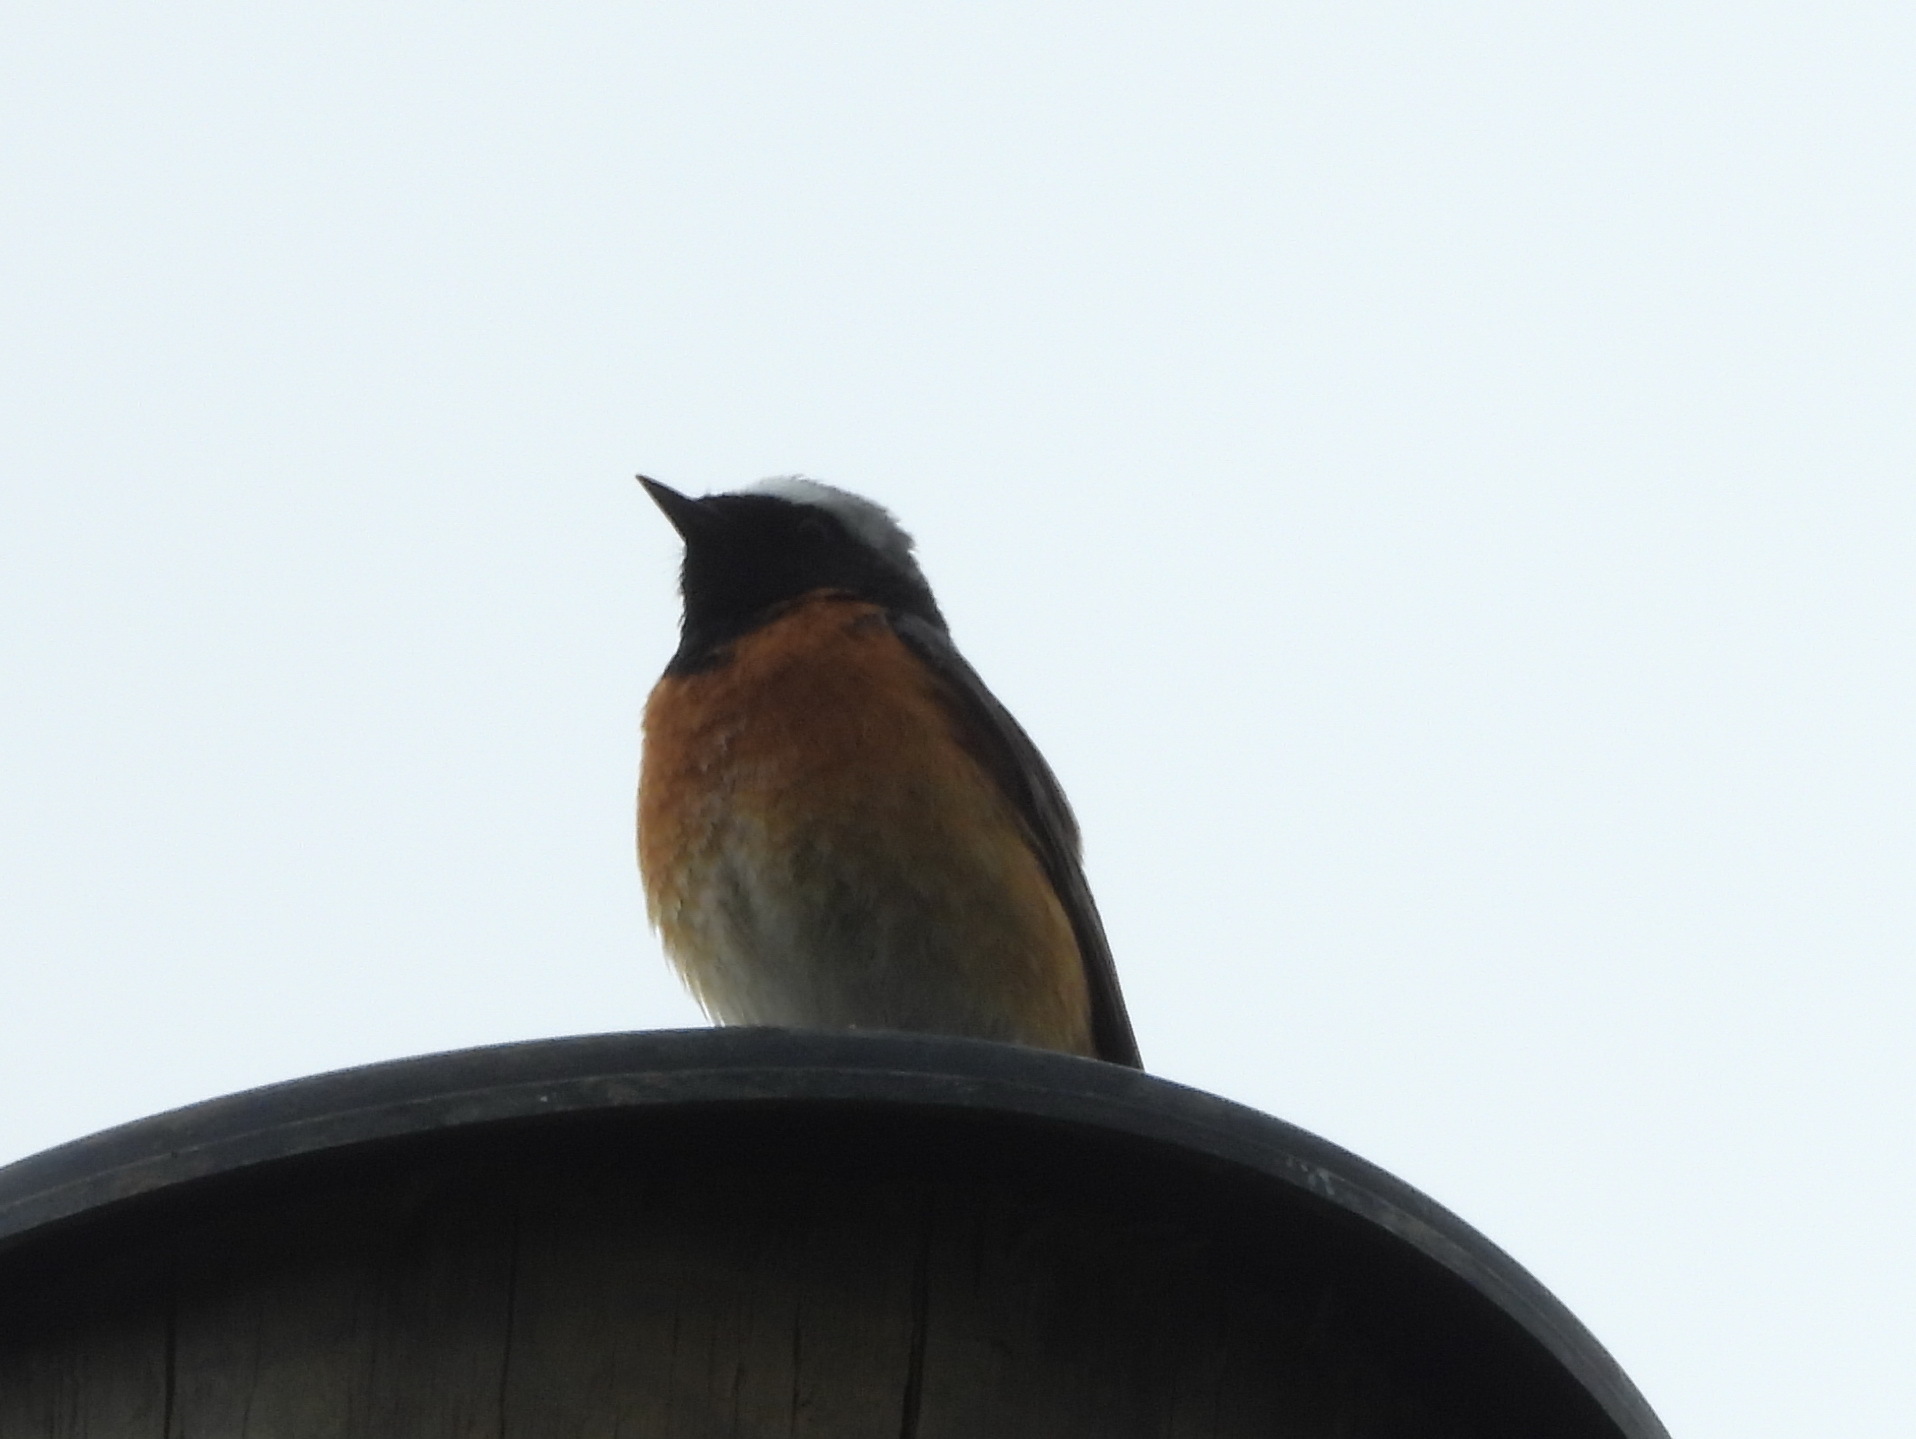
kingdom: Animalia
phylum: Chordata
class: Aves
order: Passeriformes
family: Muscicapidae
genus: Phoenicurus
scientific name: Phoenicurus phoenicurus
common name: Common redstart
